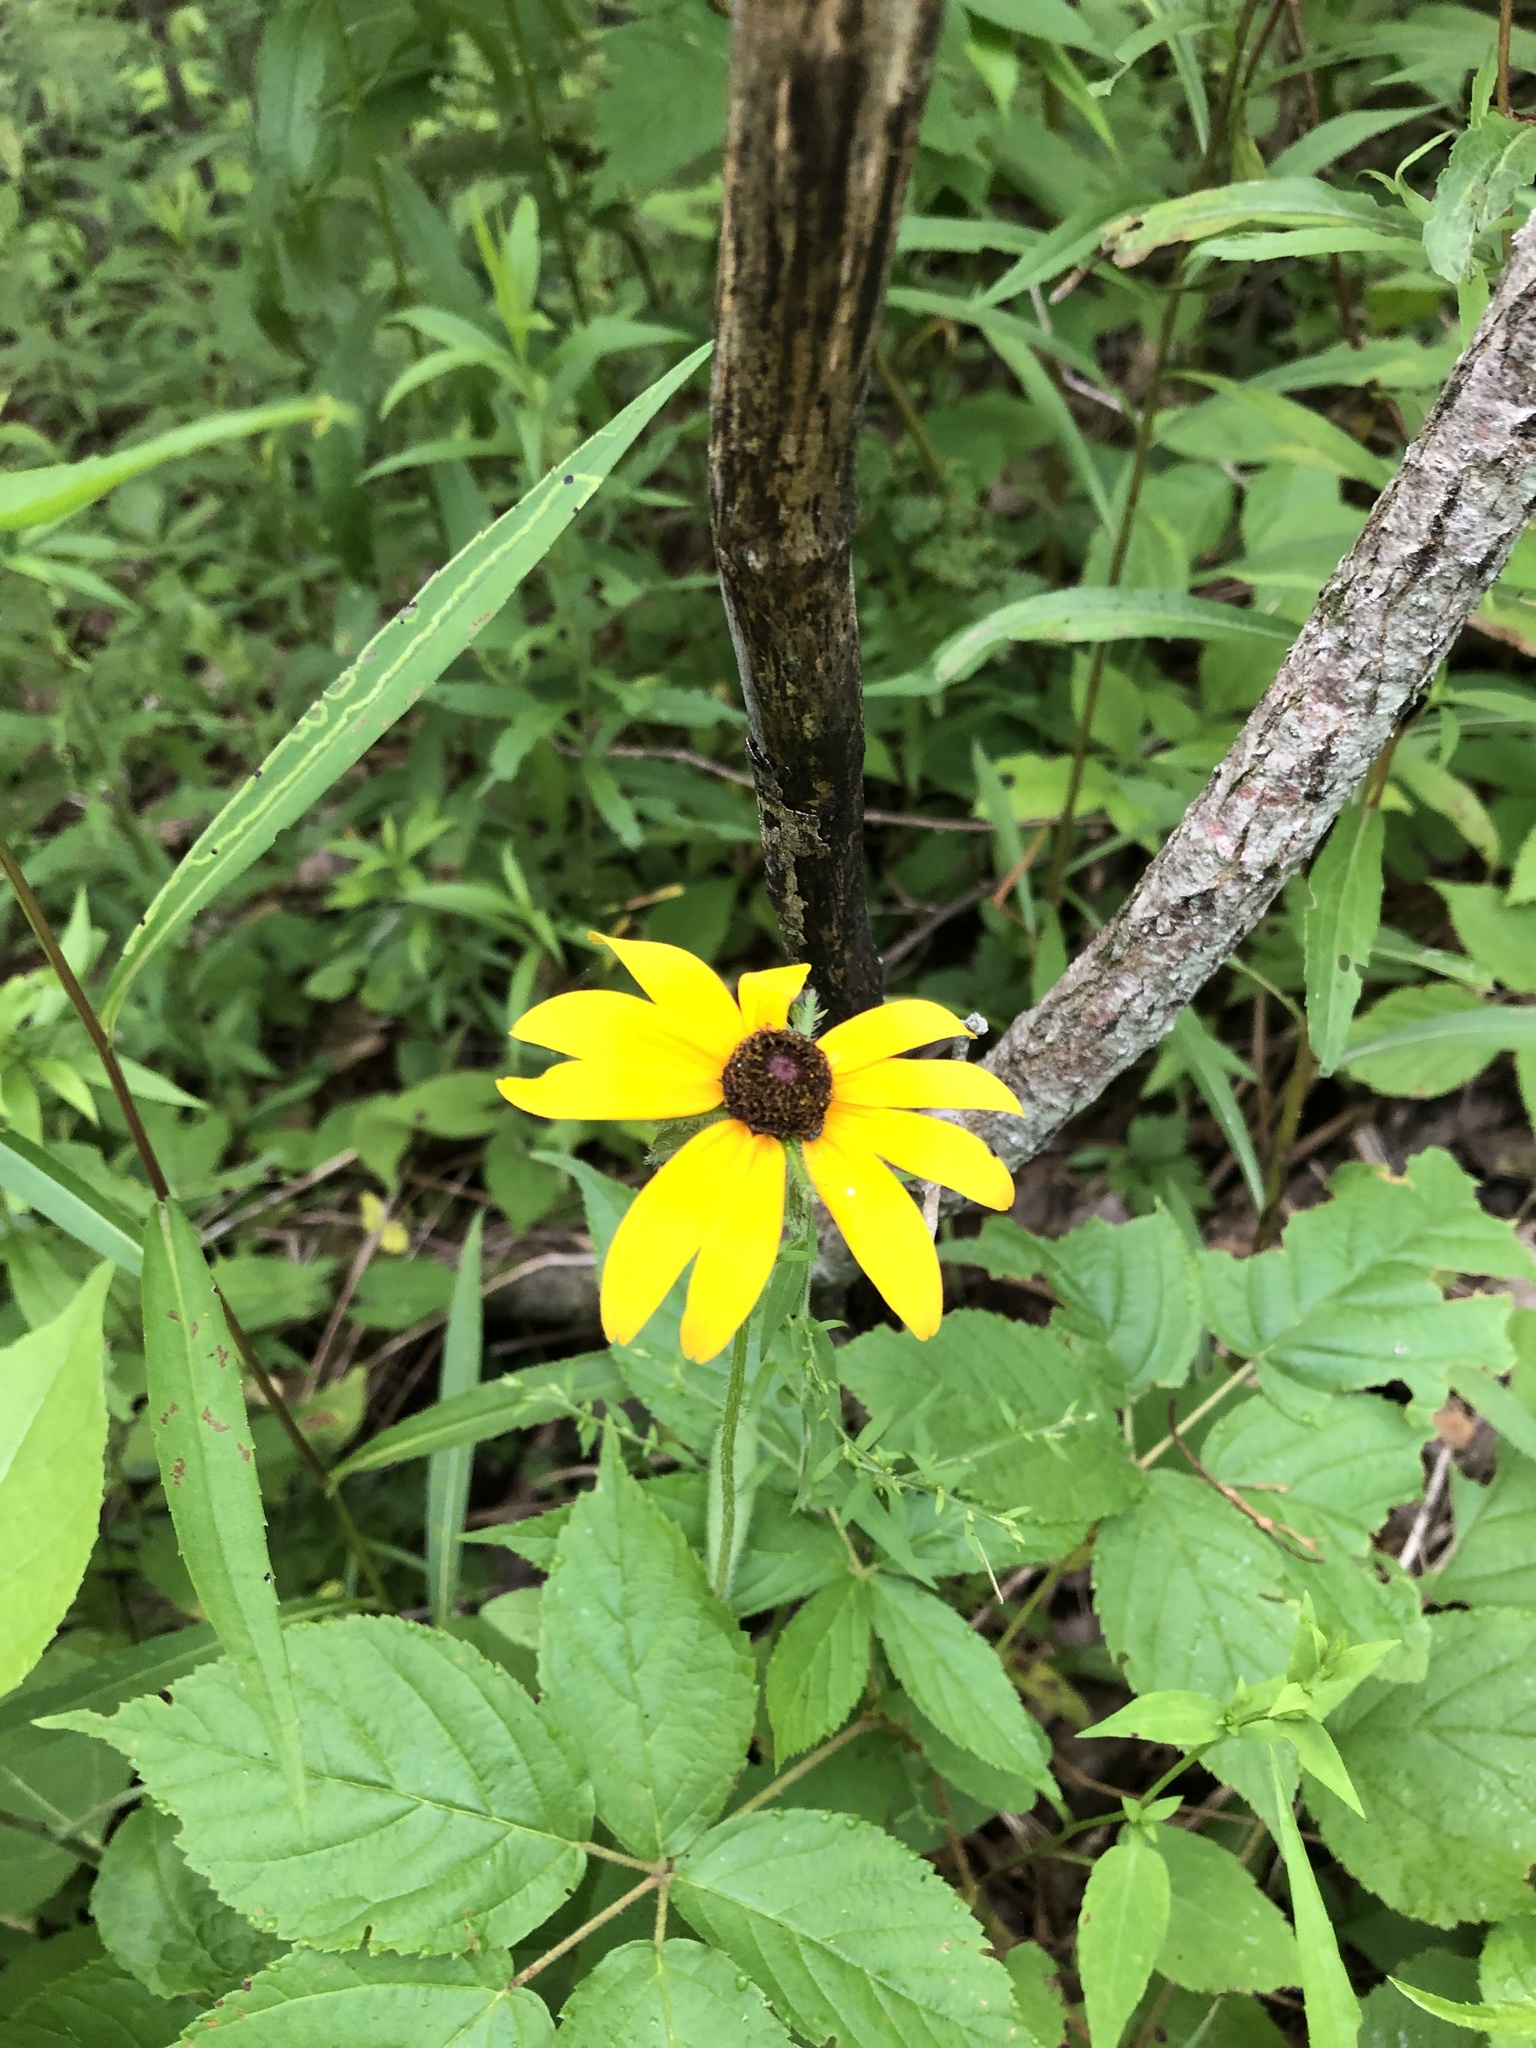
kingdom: Plantae
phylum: Tracheophyta
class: Magnoliopsida
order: Asterales
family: Asteraceae
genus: Rudbeckia
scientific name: Rudbeckia hirta
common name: Black-eyed-susan
